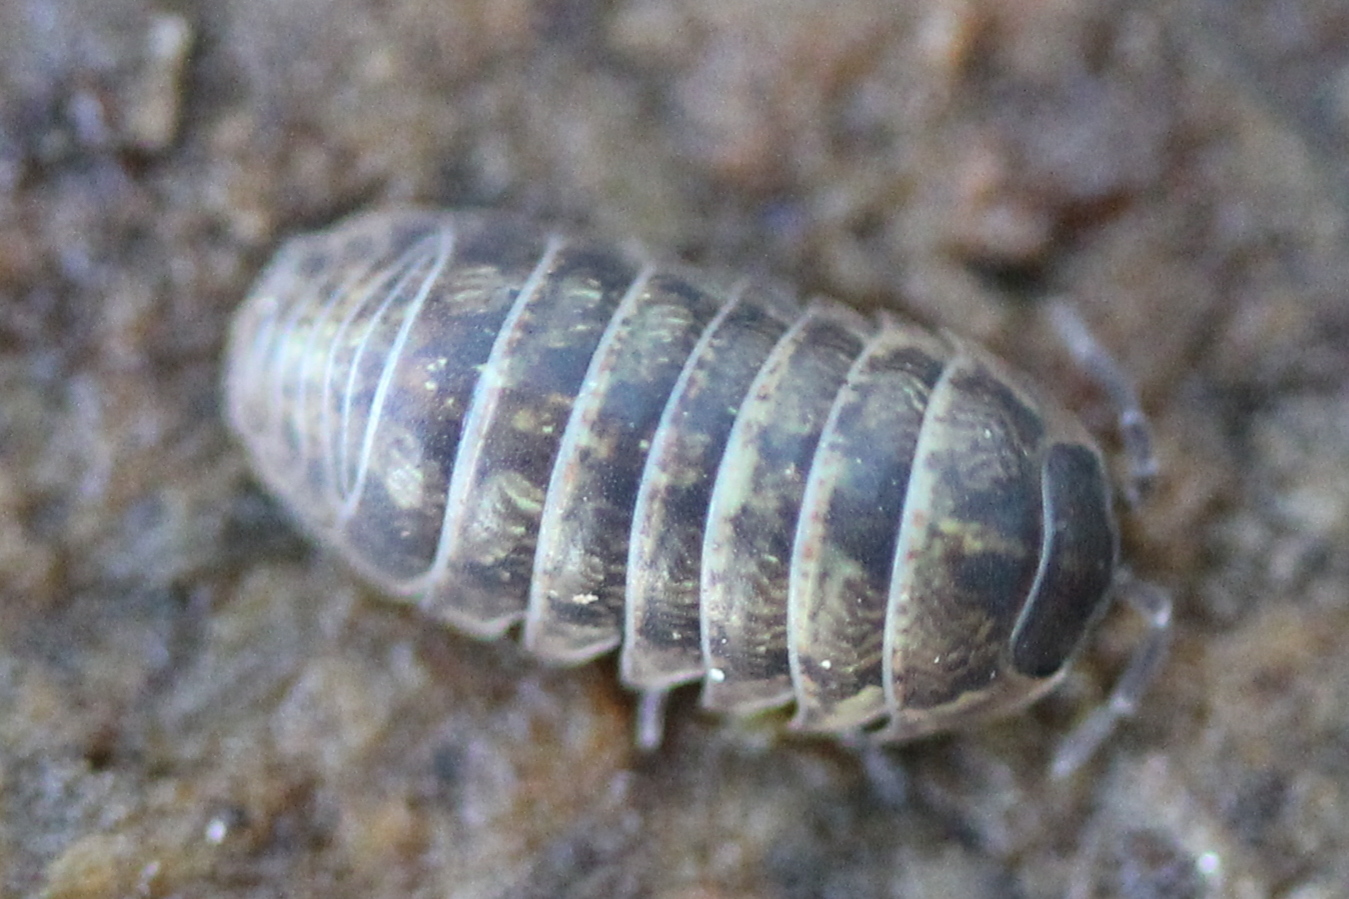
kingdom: Animalia
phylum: Arthropoda
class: Malacostraca
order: Isopoda
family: Armadillidiidae
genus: Armadillidium
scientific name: Armadillidium vulgare
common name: Common pill woodlouse
